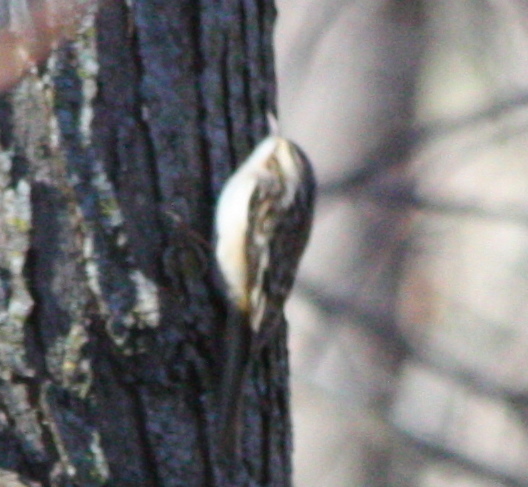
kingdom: Animalia
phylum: Chordata
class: Aves
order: Passeriformes
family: Certhiidae
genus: Certhia
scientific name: Certhia americana
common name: Brown creeper
